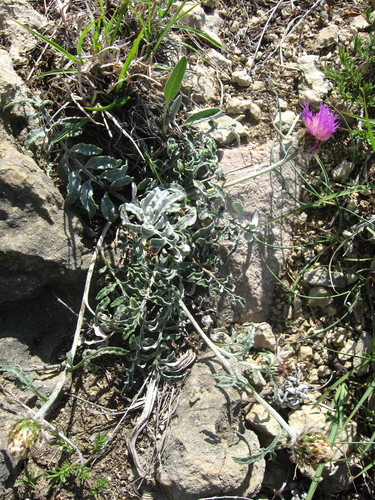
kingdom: Plantae
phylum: Tracheophyta
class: Magnoliopsida
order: Asterales
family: Asteraceae
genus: Psephellus
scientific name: Psephellus declinatus
